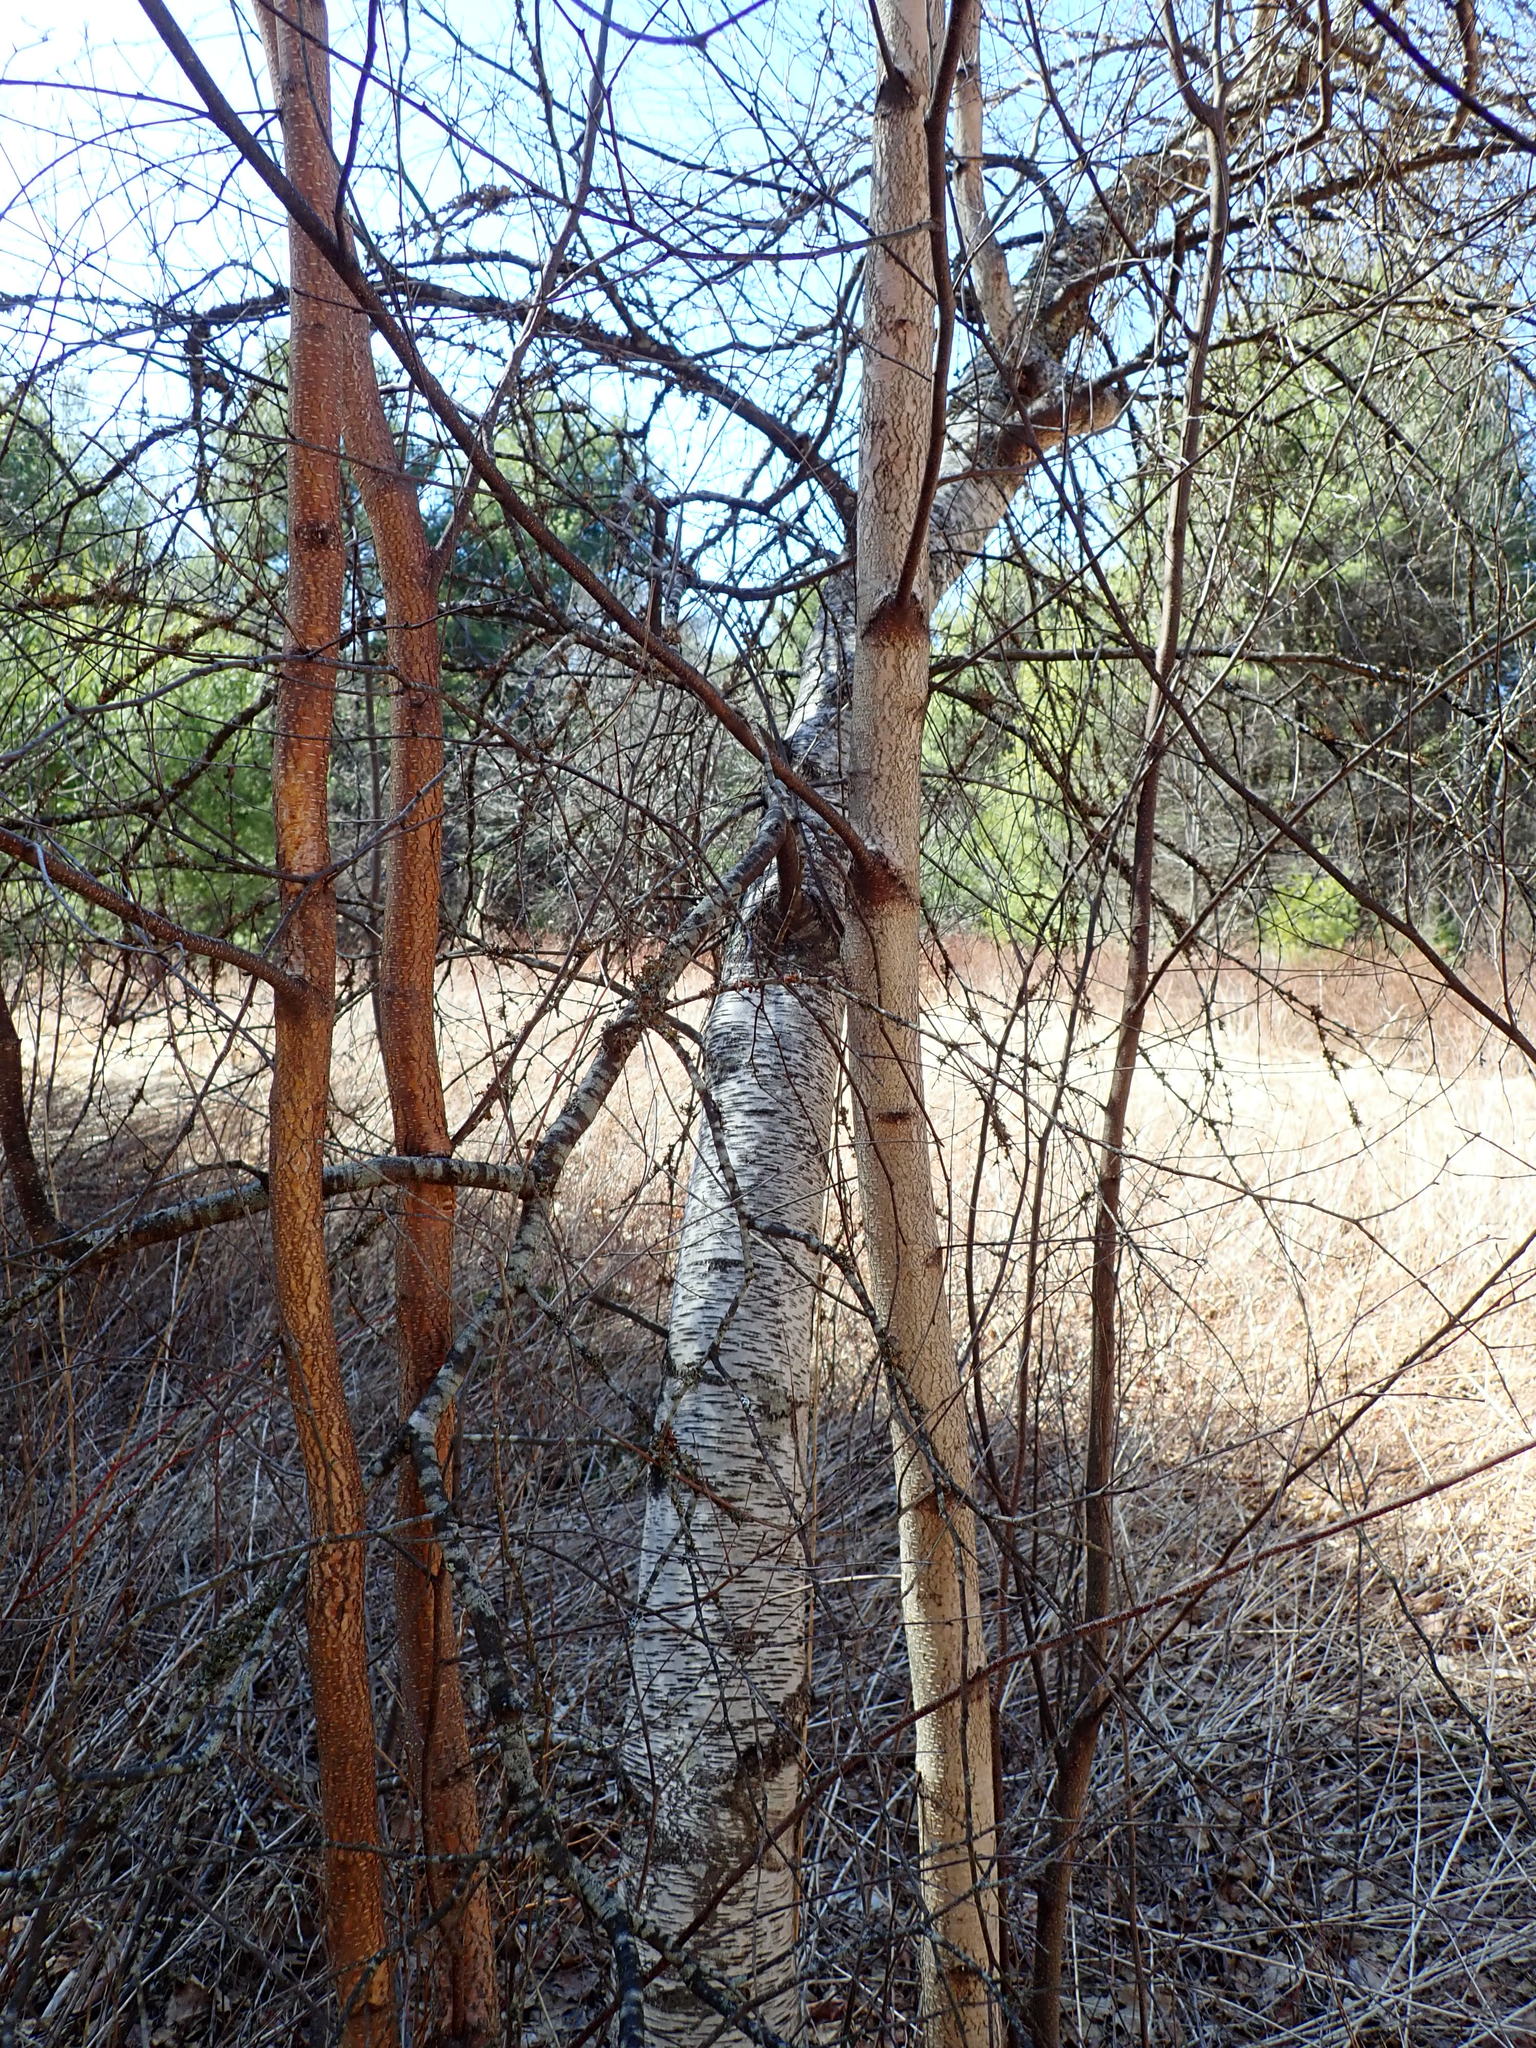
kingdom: Plantae
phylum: Tracheophyta
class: Magnoliopsida
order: Fagales
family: Betulaceae
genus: Betula
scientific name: Betula populifolia
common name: Fire birch
